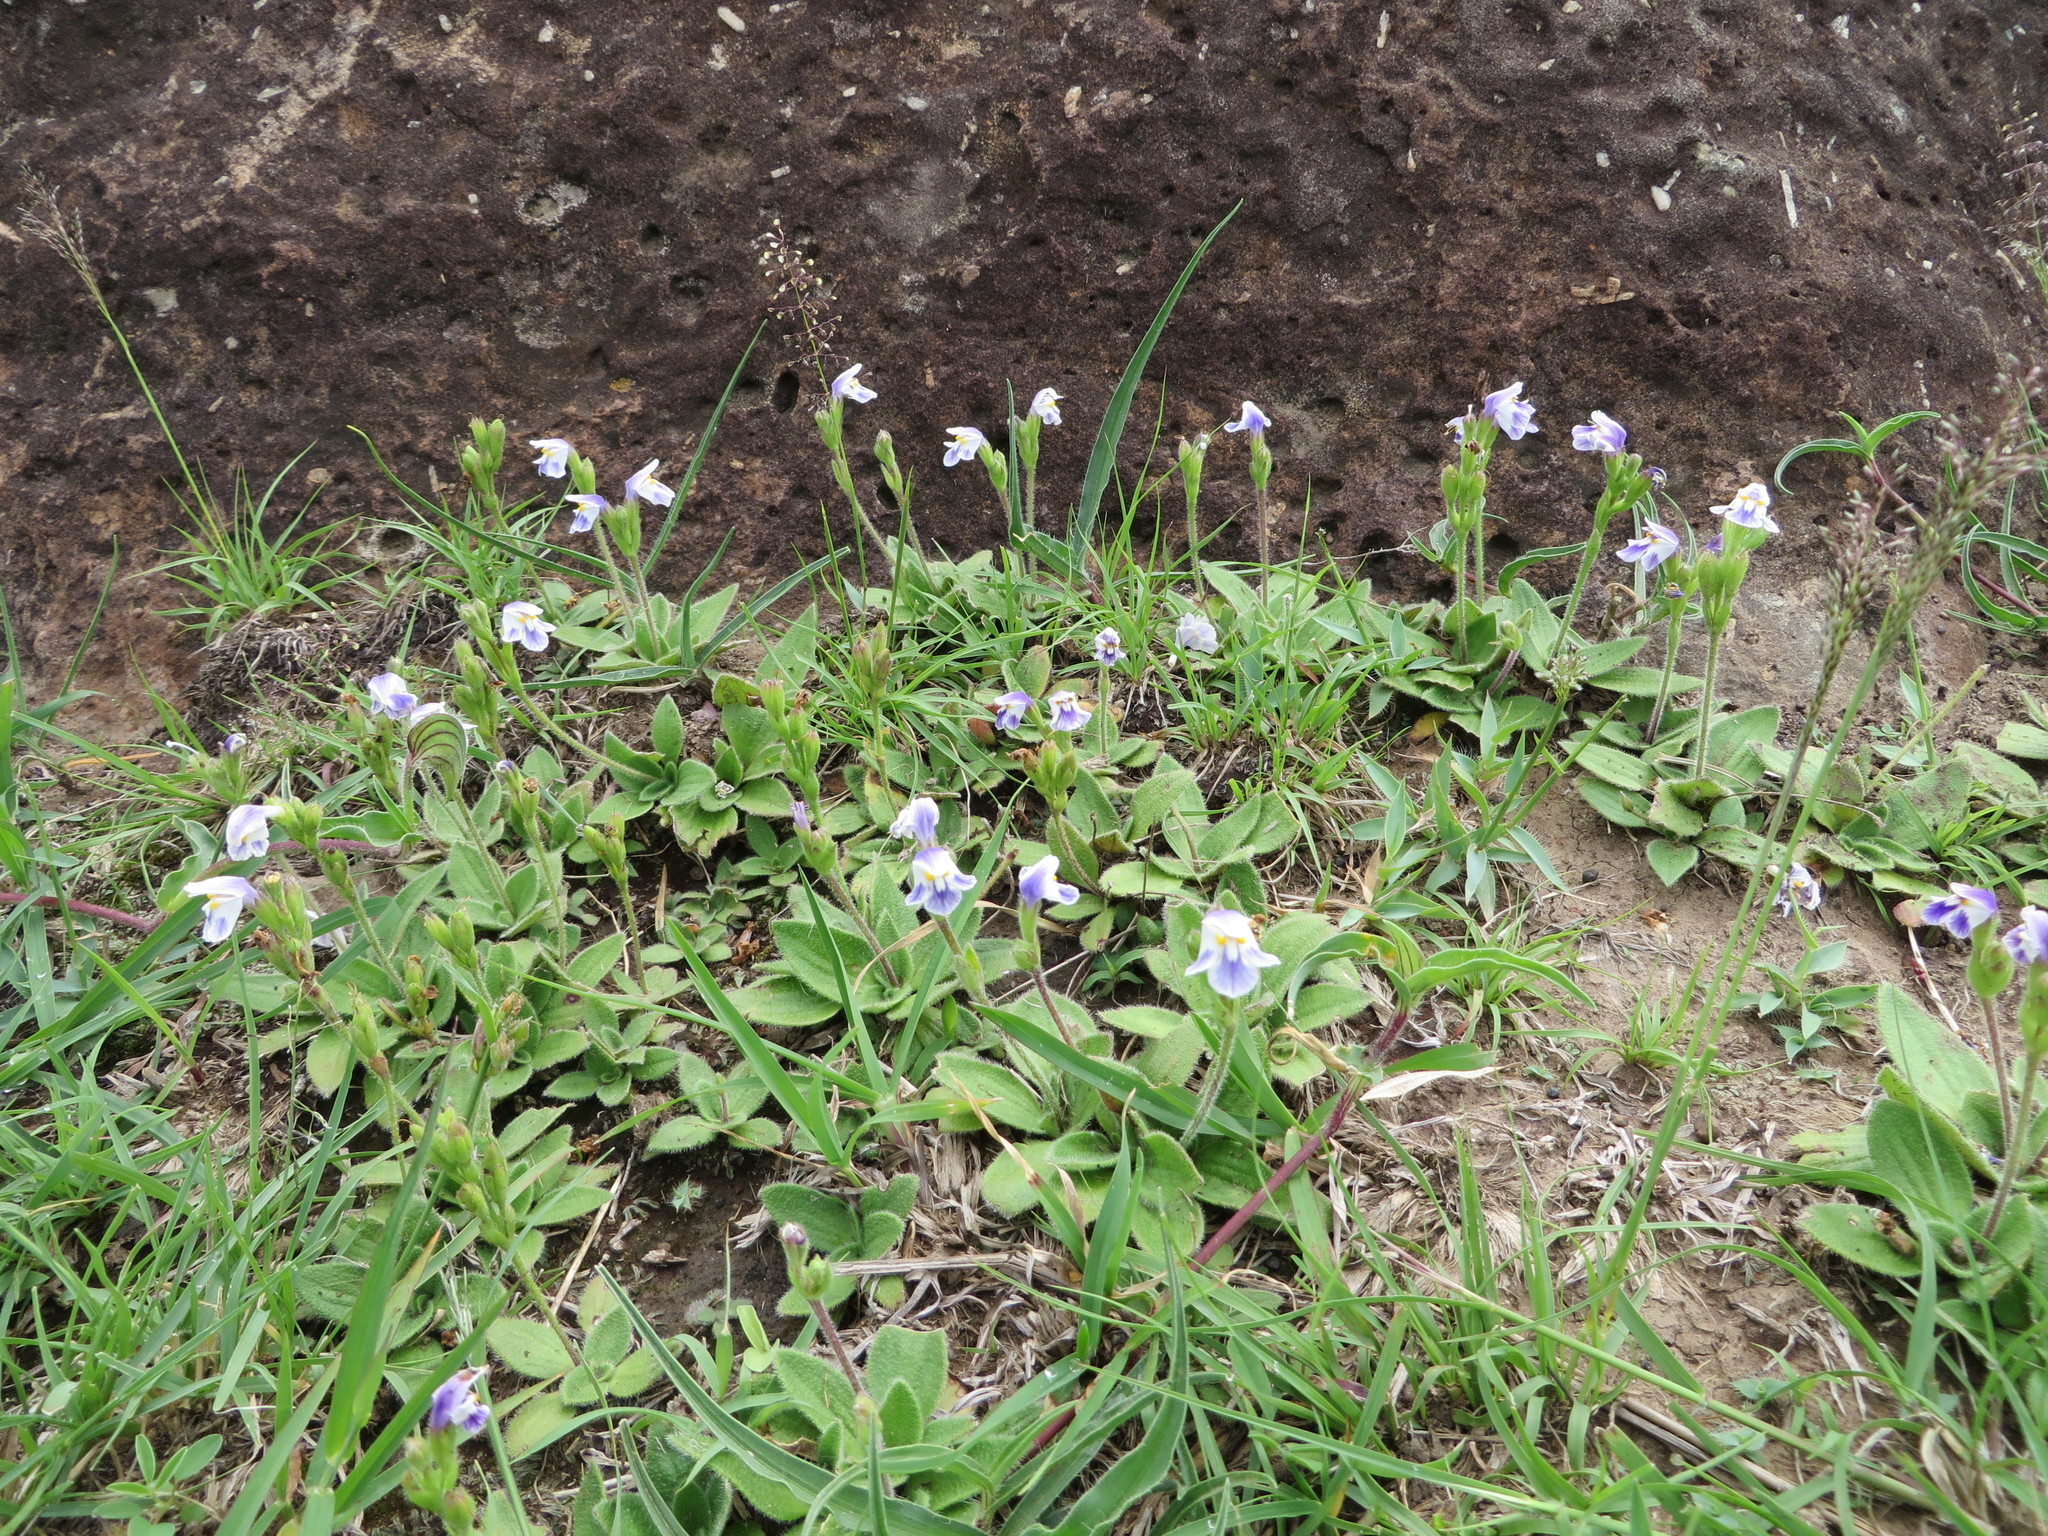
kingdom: Plantae
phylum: Tracheophyta
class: Magnoliopsida
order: Lamiales
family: Linderniaceae
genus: Craterostigma
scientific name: Craterostigma plantagineum
